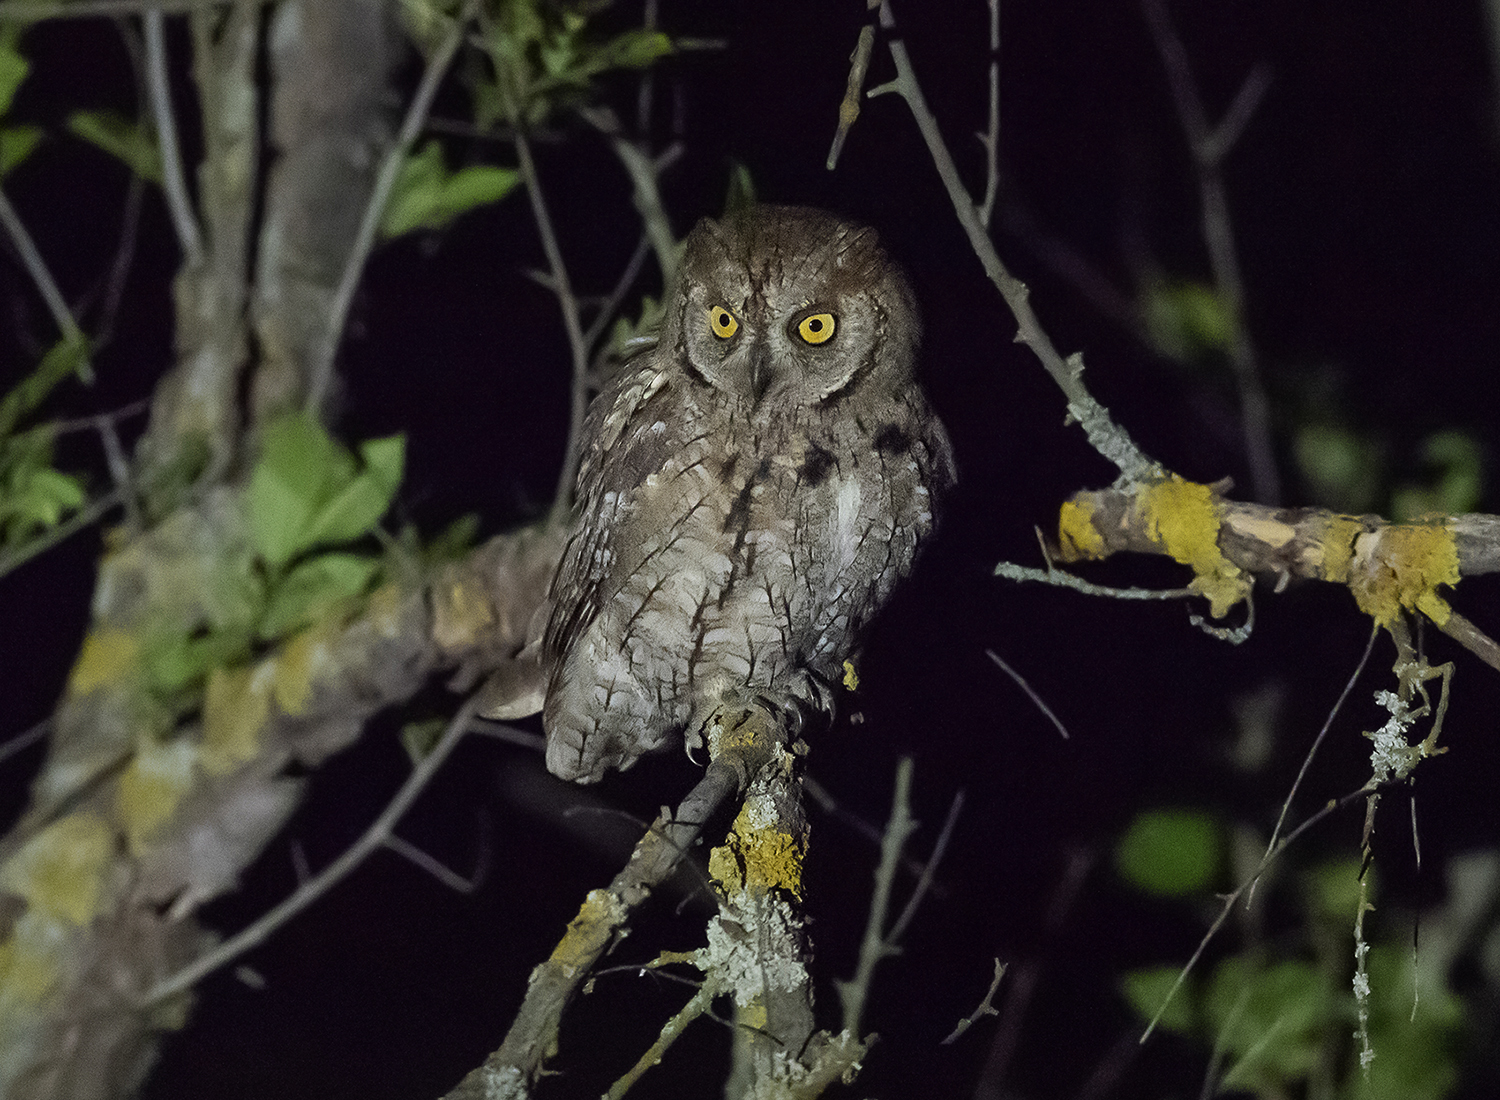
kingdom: Animalia
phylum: Chordata
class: Aves
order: Strigiformes
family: Strigidae
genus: Otus
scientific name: Otus scops
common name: Eurasian scops owl
